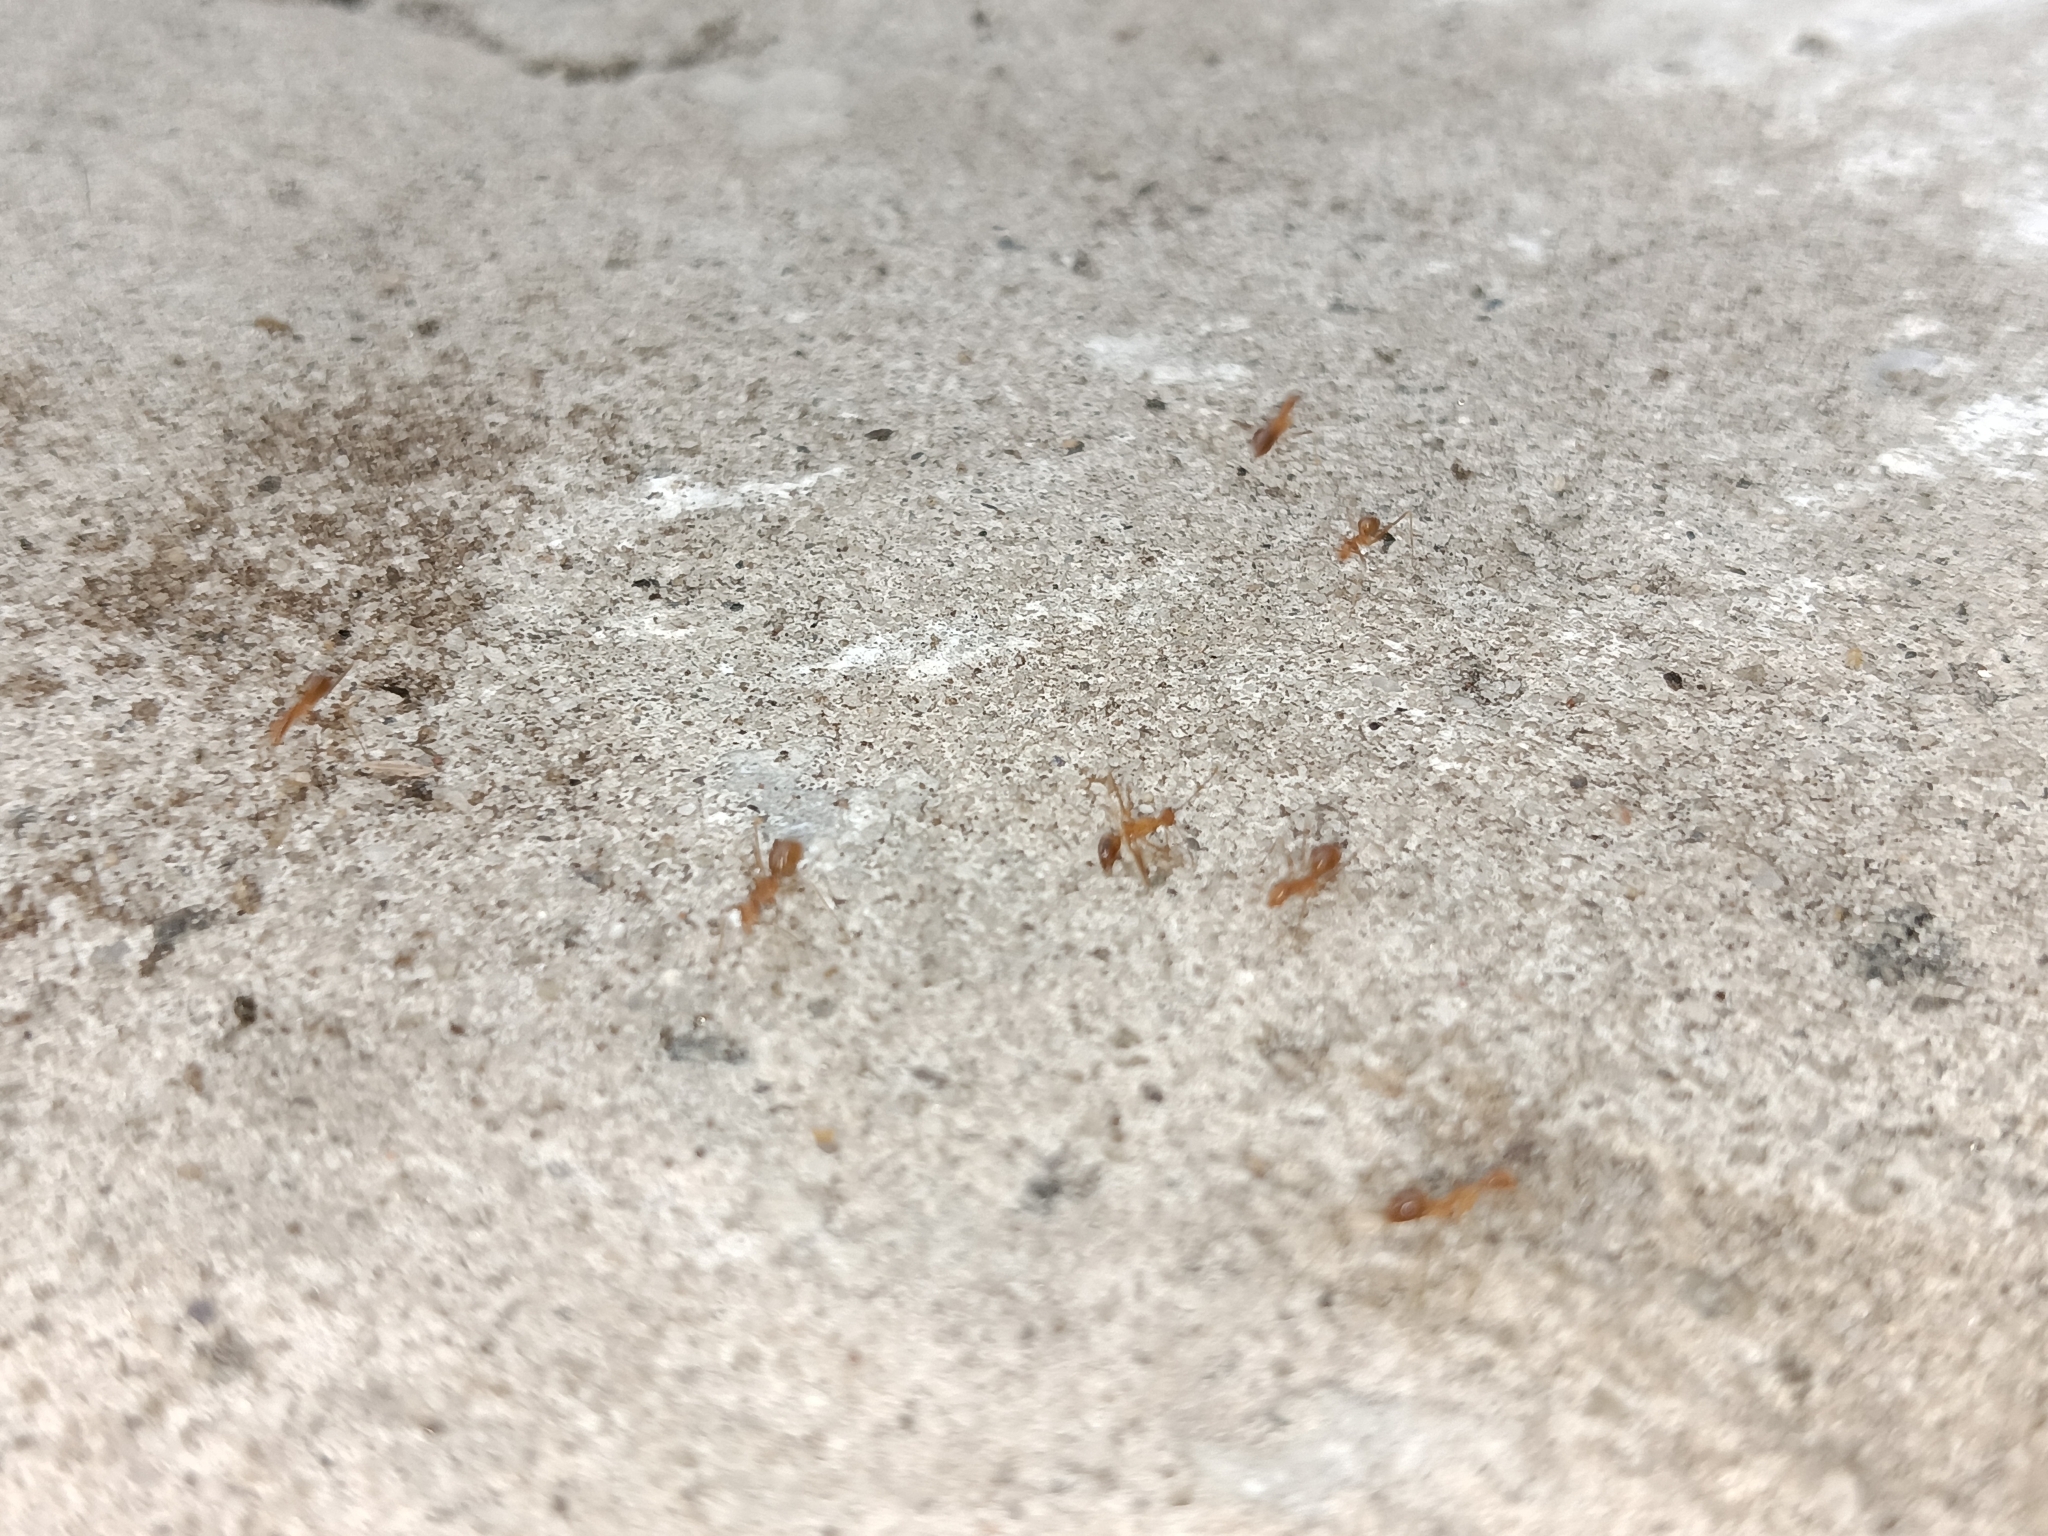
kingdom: Animalia
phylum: Arthropoda
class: Insecta
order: Hymenoptera
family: Formicidae
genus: Anoplolepis
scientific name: Anoplolepis gracilipes
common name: Ant
